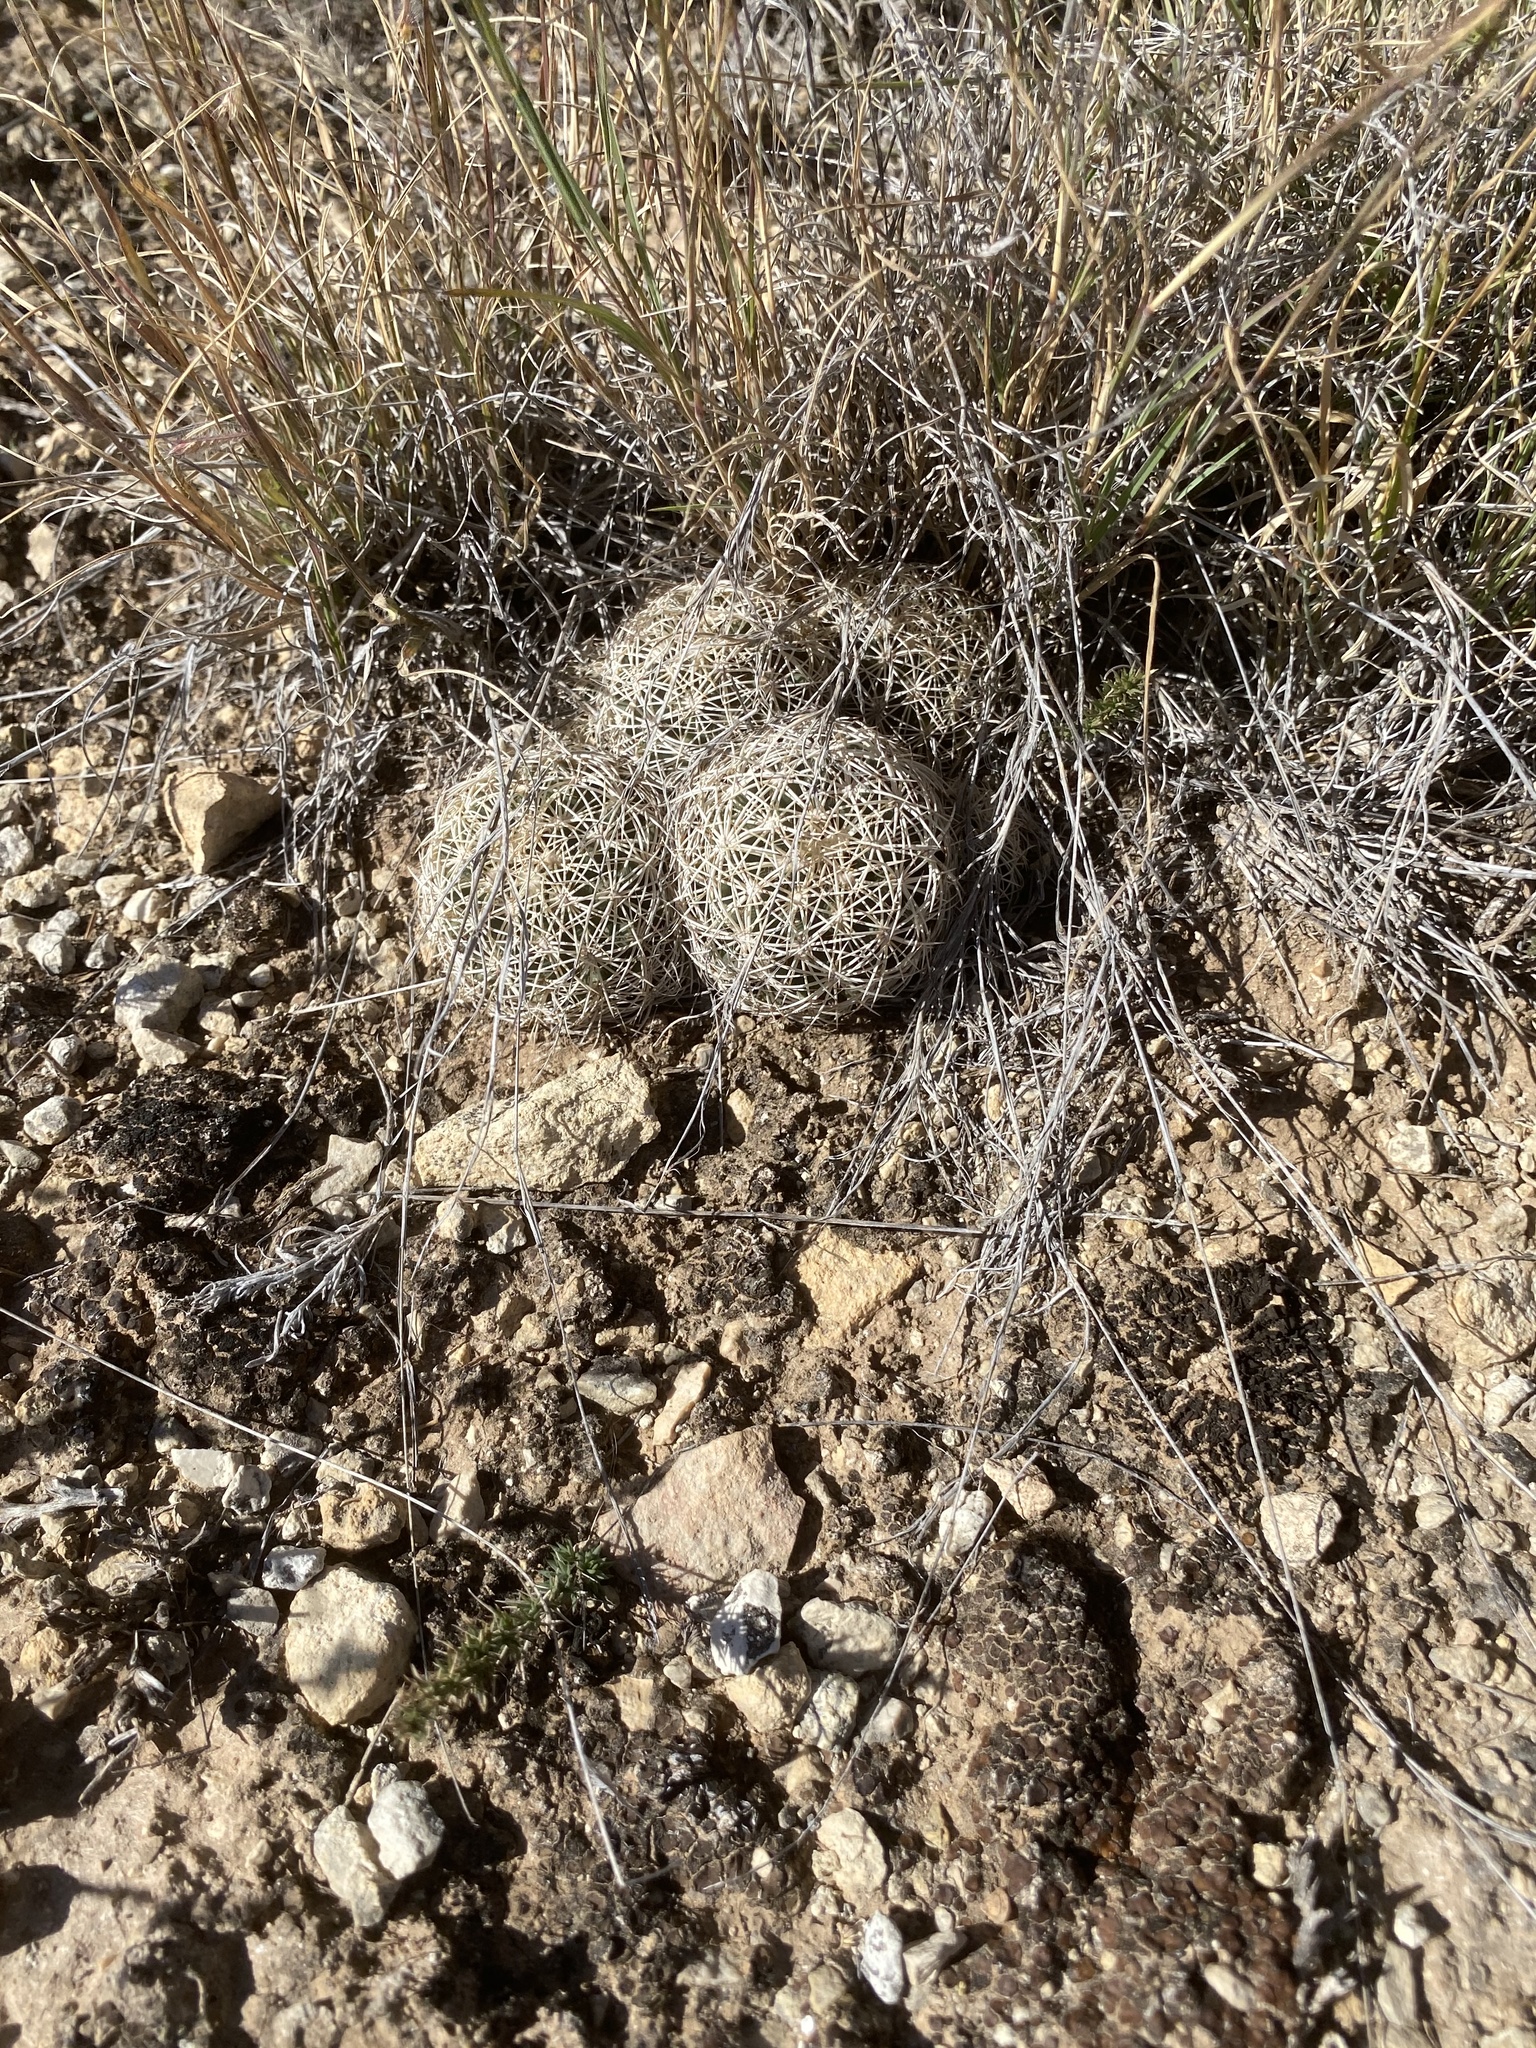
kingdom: Plantae
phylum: Tracheophyta
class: Magnoliopsida
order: Caryophyllales
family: Cactaceae
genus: Coryphantha
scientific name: Coryphantha echinus
